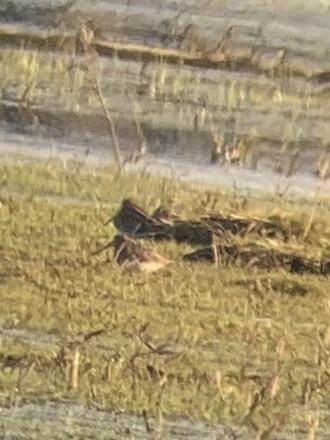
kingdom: Animalia
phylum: Chordata
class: Aves
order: Charadriiformes
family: Scolopacidae
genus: Gallinago
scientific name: Gallinago gallinago
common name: Common snipe
